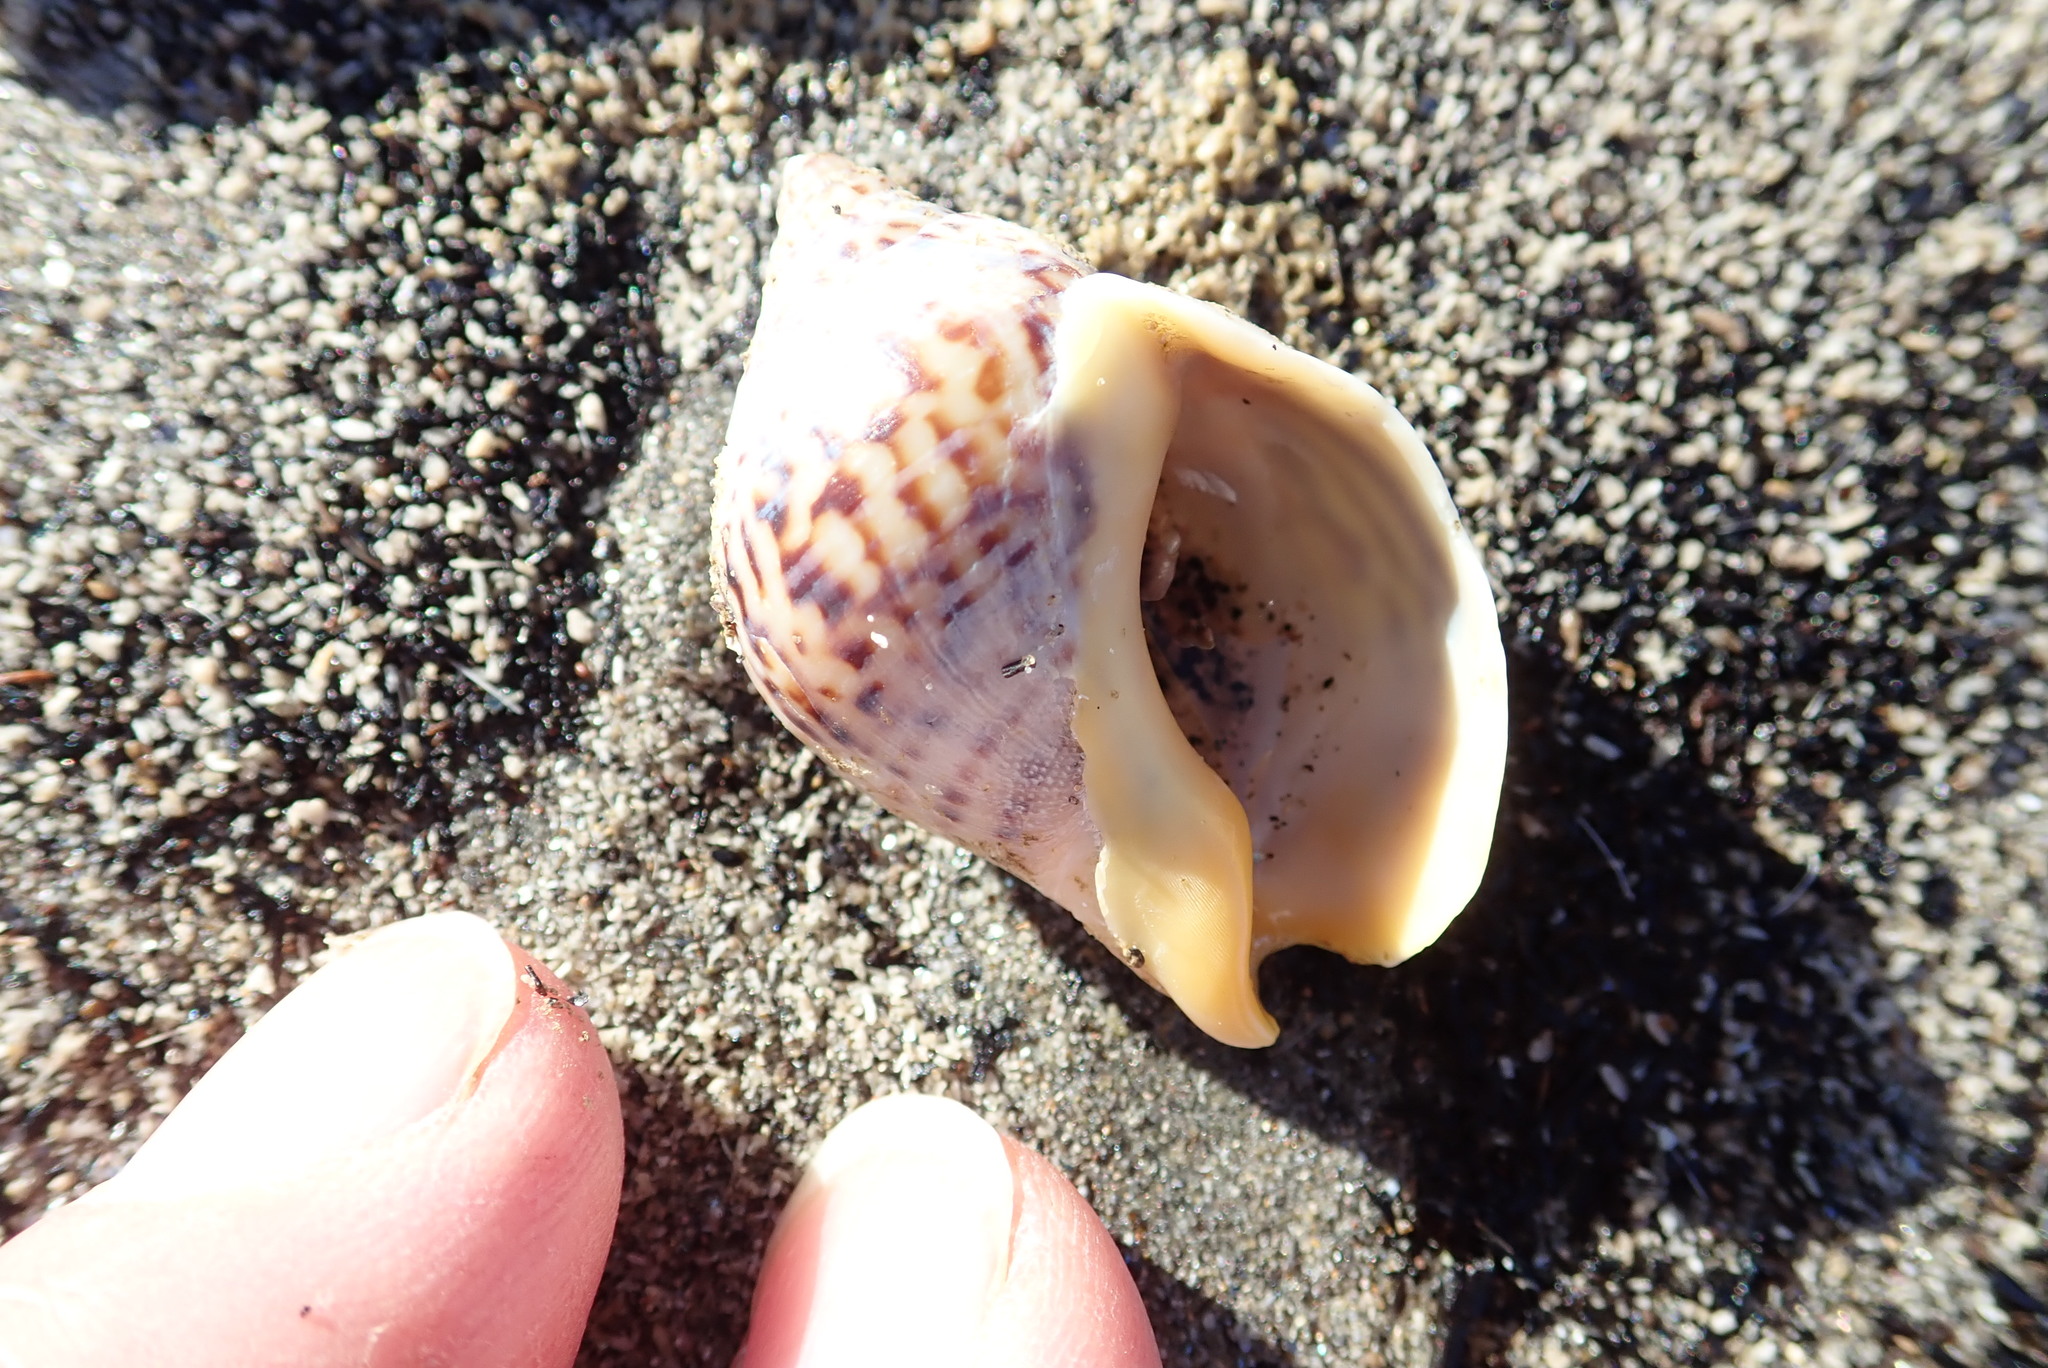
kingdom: Animalia
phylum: Mollusca
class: Gastropoda
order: Neogastropoda
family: Cominellidae
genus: Cominella
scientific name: Cominella adspersa
